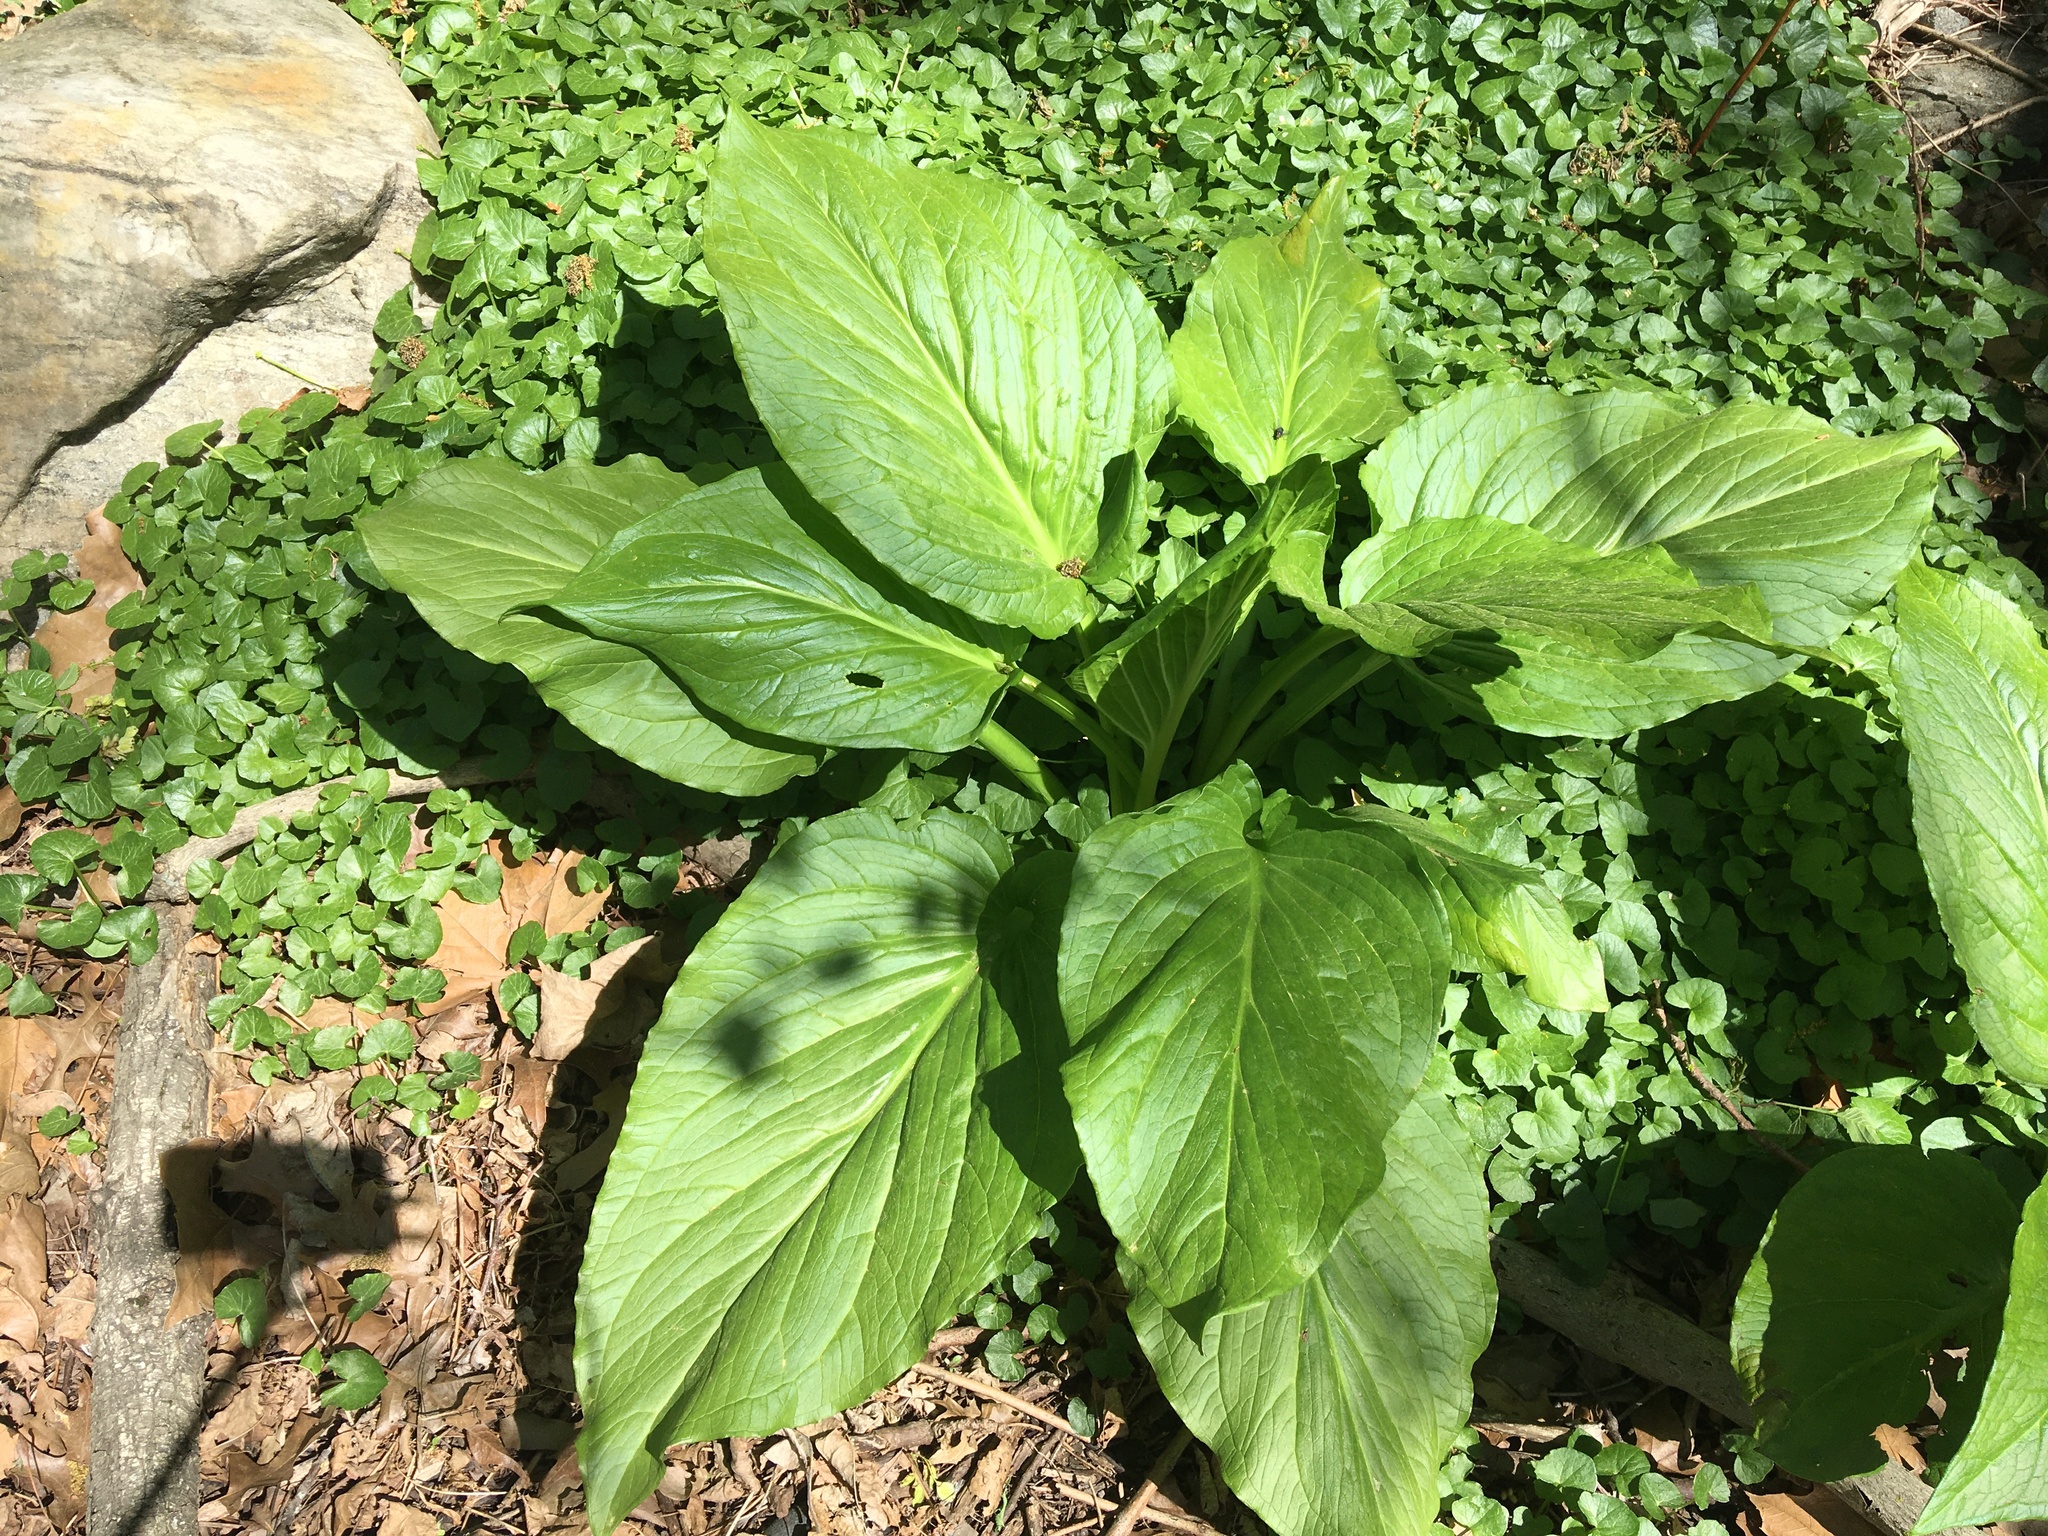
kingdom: Plantae
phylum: Tracheophyta
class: Liliopsida
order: Alismatales
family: Araceae
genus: Symplocarpus
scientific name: Symplocarpus foetidus
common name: Eastern skunk cabbage
